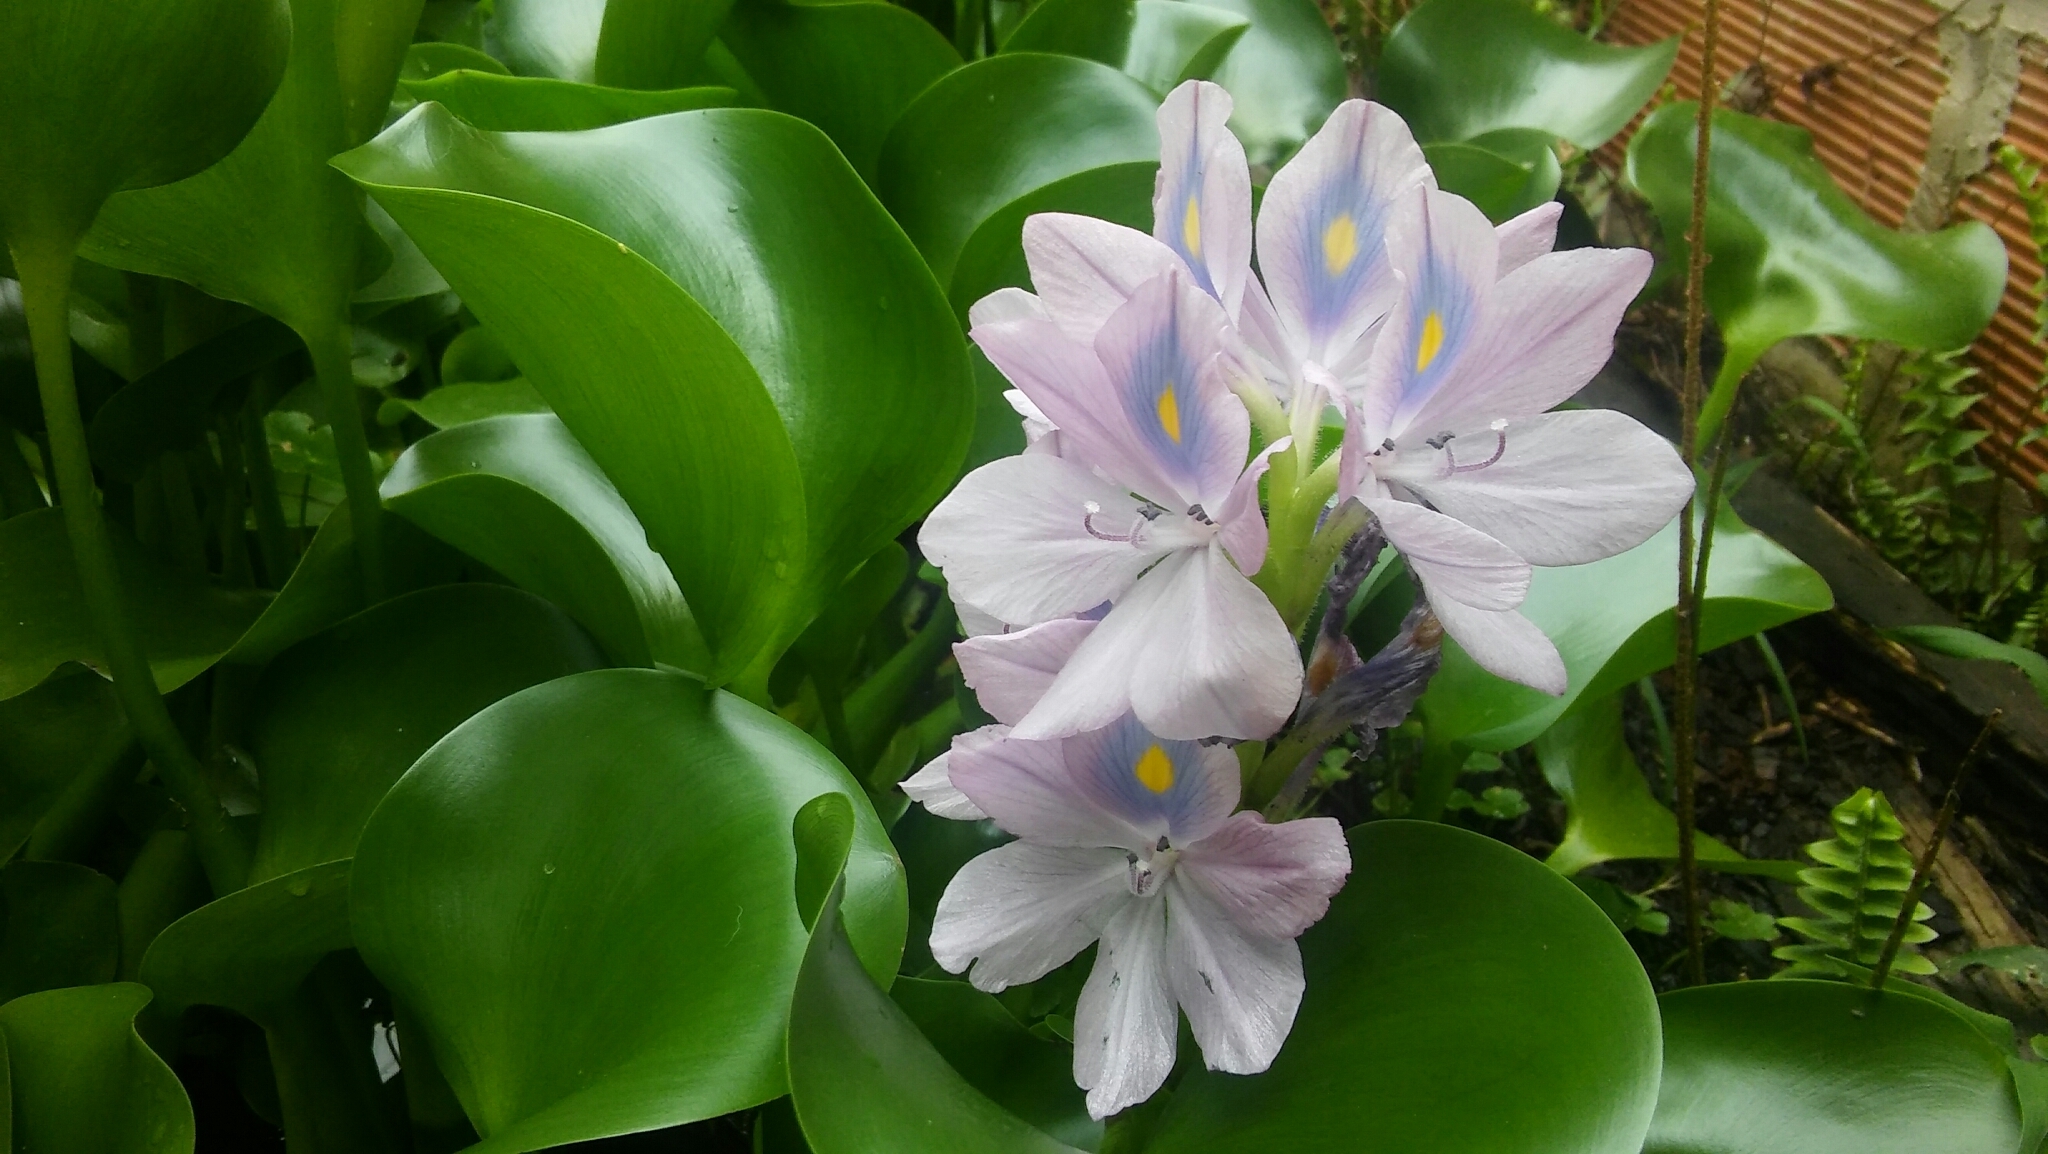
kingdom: Plantae
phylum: Tracheophyta
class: Liliopsida
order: Commelinales
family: Pontederiaceae
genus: Pontederia
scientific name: Pontederia crassipes
